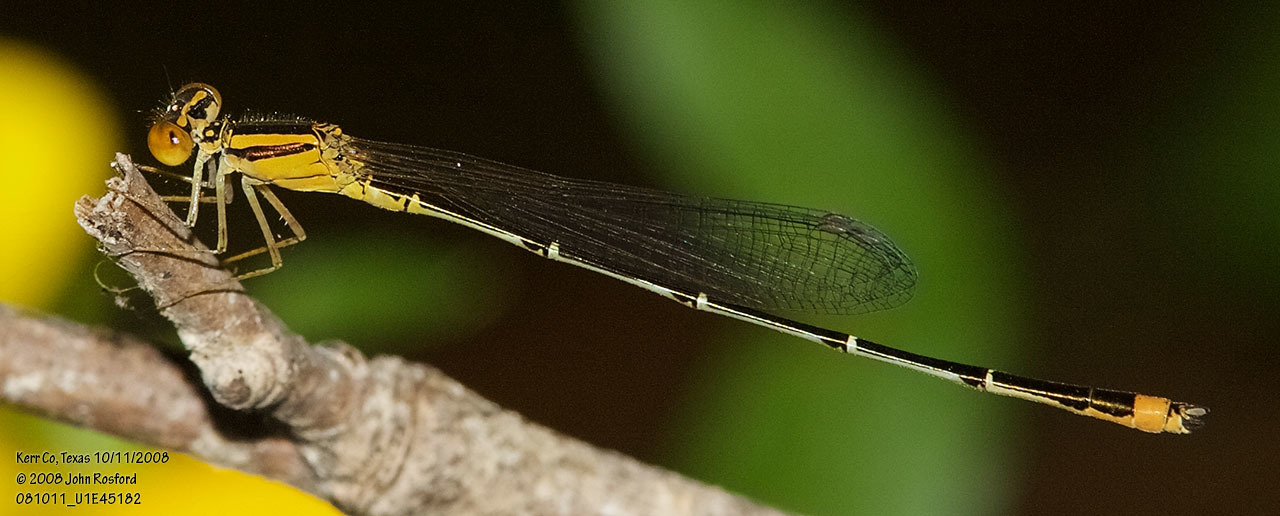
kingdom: Animalia
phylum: Arthropoda
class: Insecta
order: Odonata
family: Coenagrionidae
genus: Enallagma
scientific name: Enallagma signatum
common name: Orange bluet
